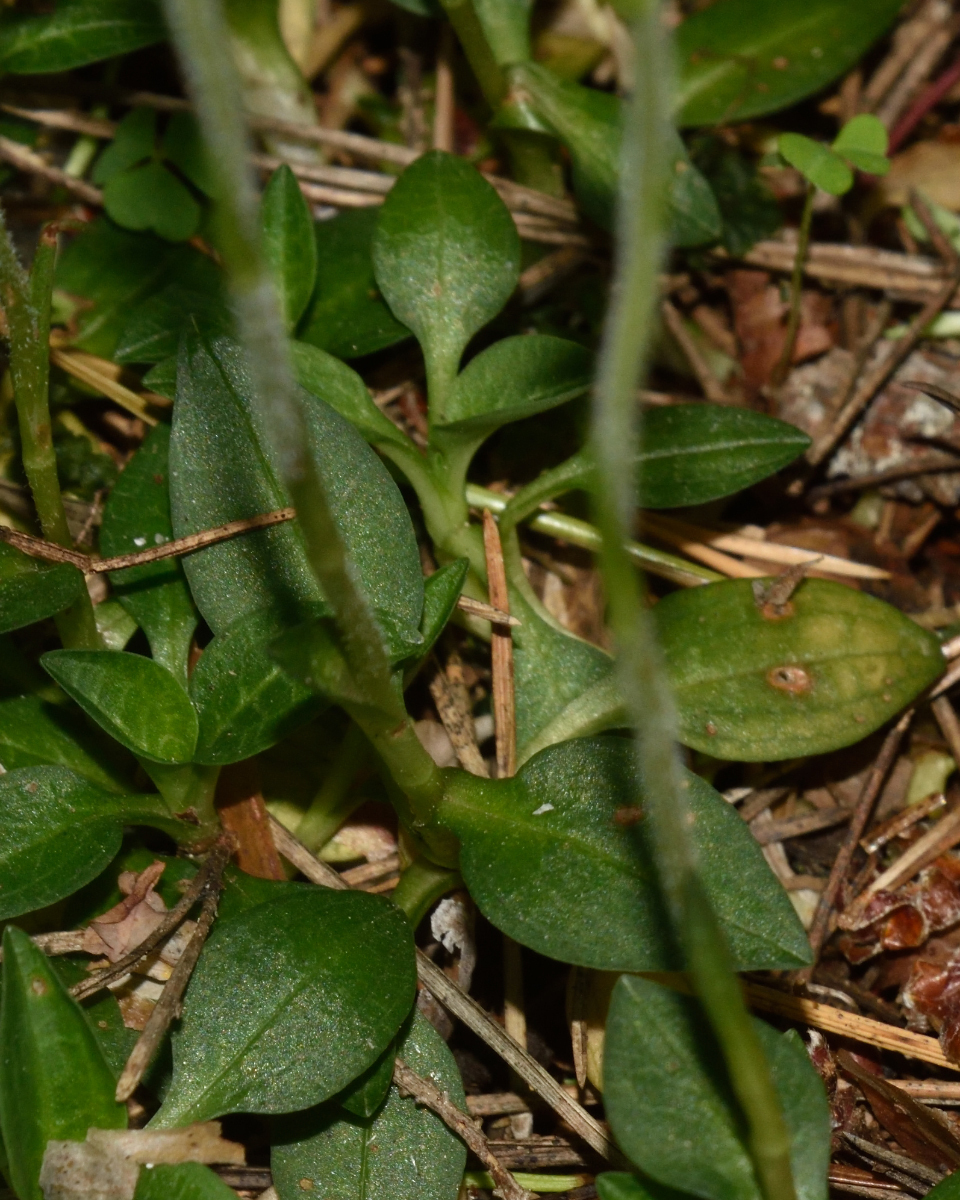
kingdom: Plantae
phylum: Tracheophyta
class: Liliopsida
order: Asparagales
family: Orchidaceae
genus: Goodyera
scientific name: Goodyera repens
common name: Creeping lady's-tresses
